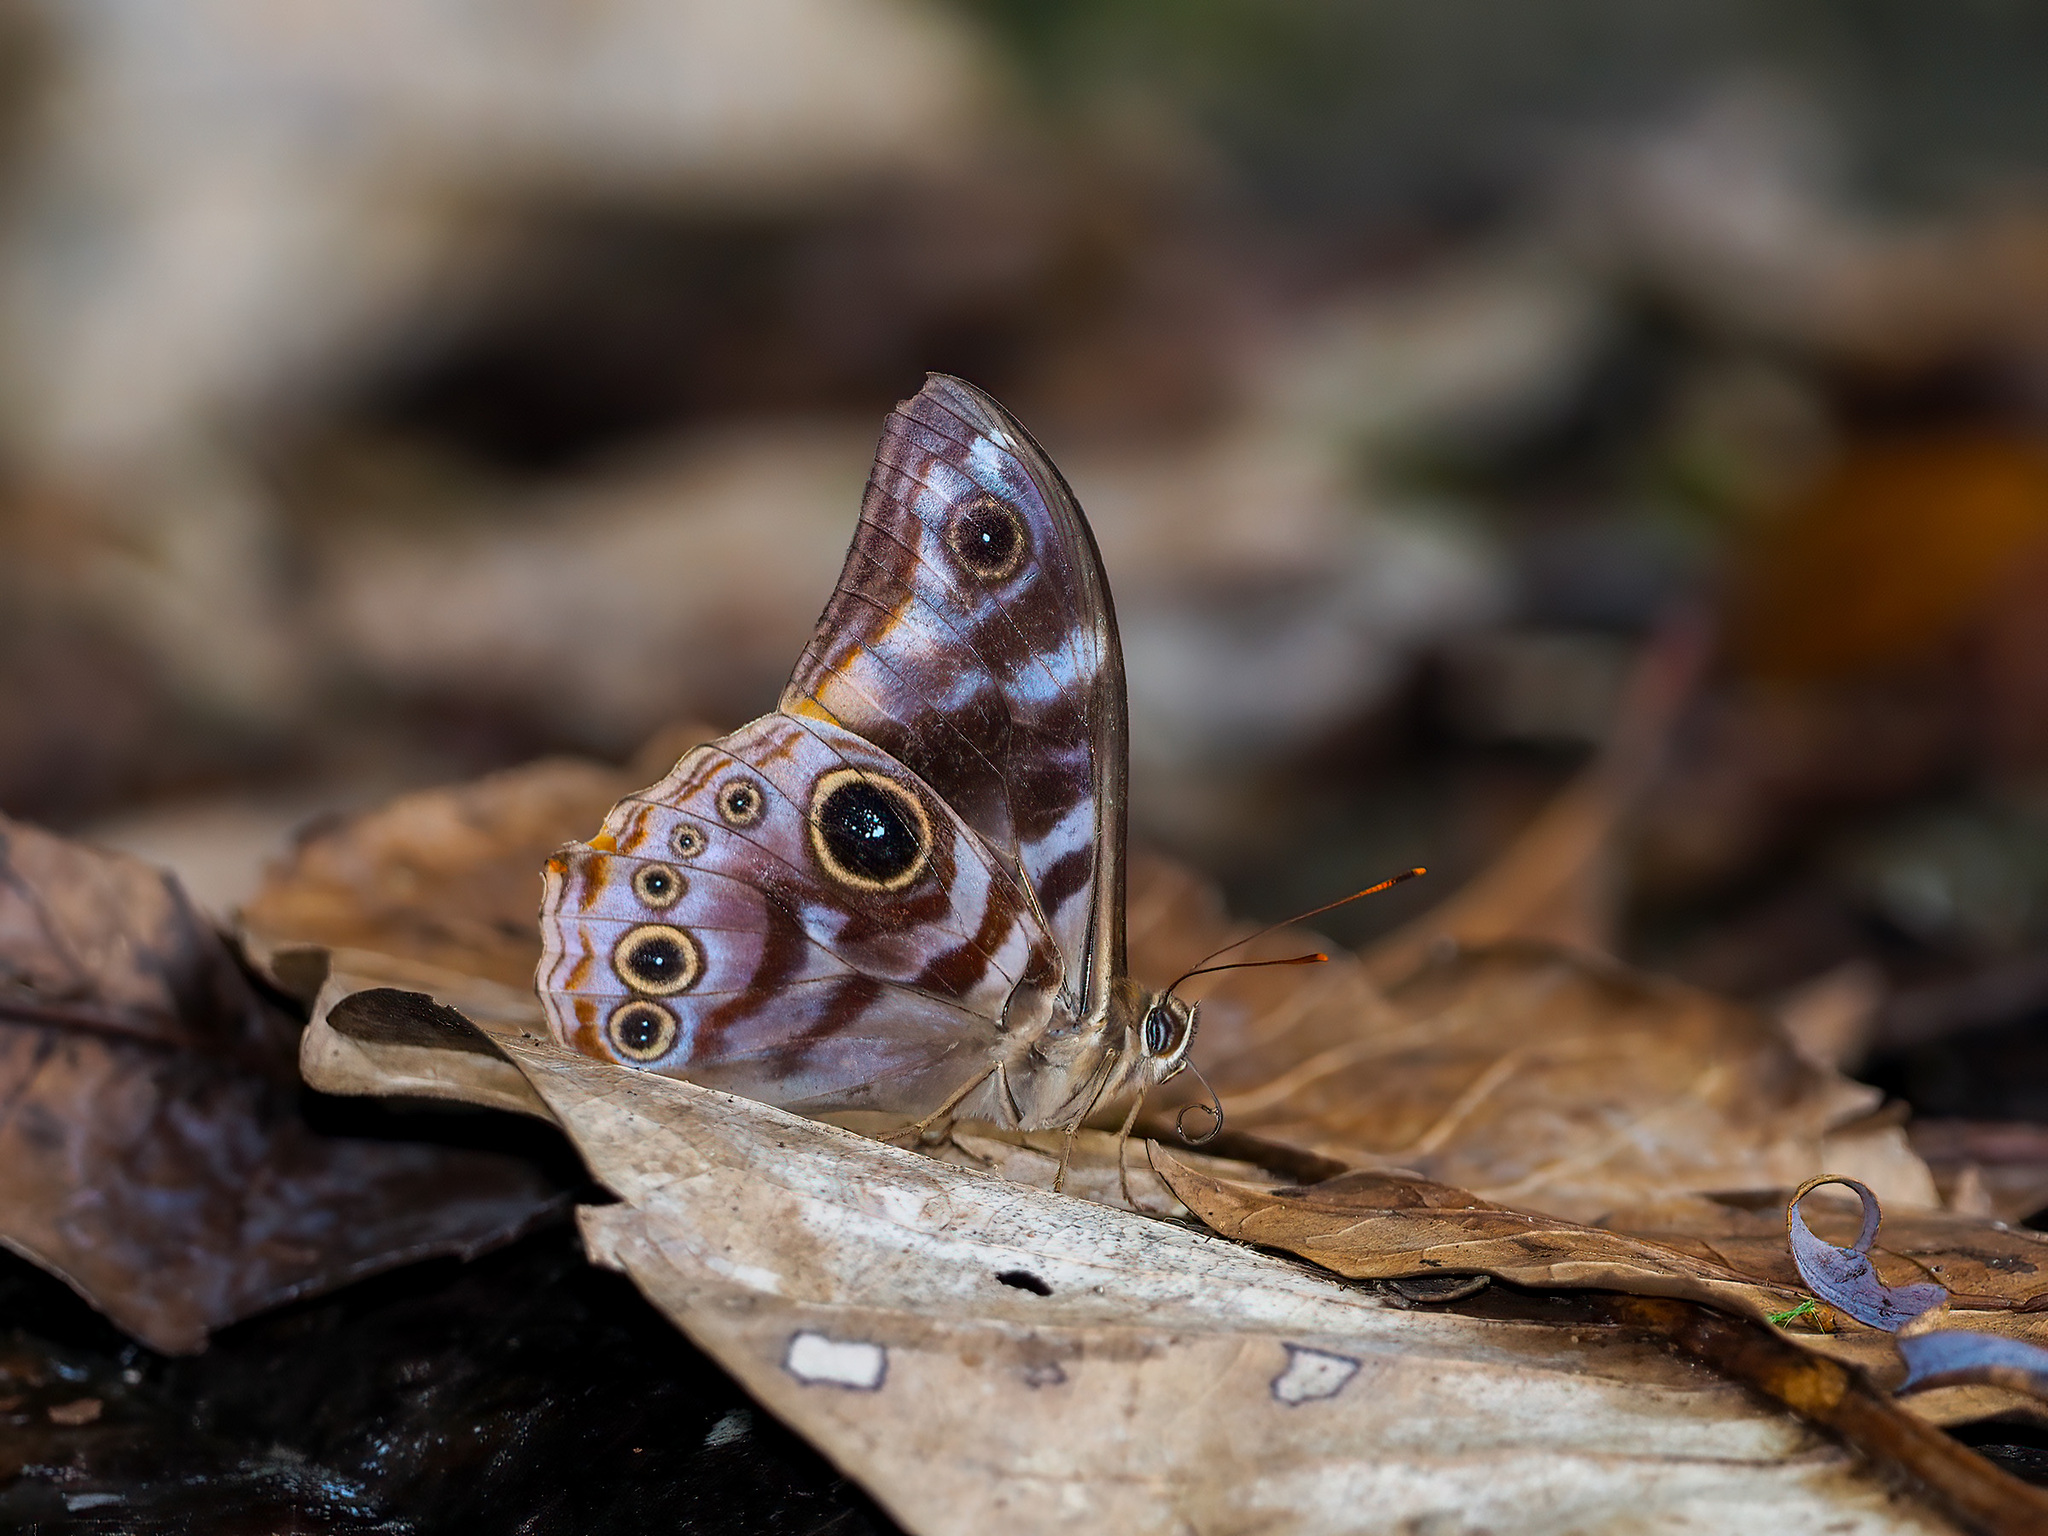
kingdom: Animalia
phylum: Arthropoda
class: Insecta
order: Lepidoptera
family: Nymphalidae
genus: Lethe
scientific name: Lethe darena
